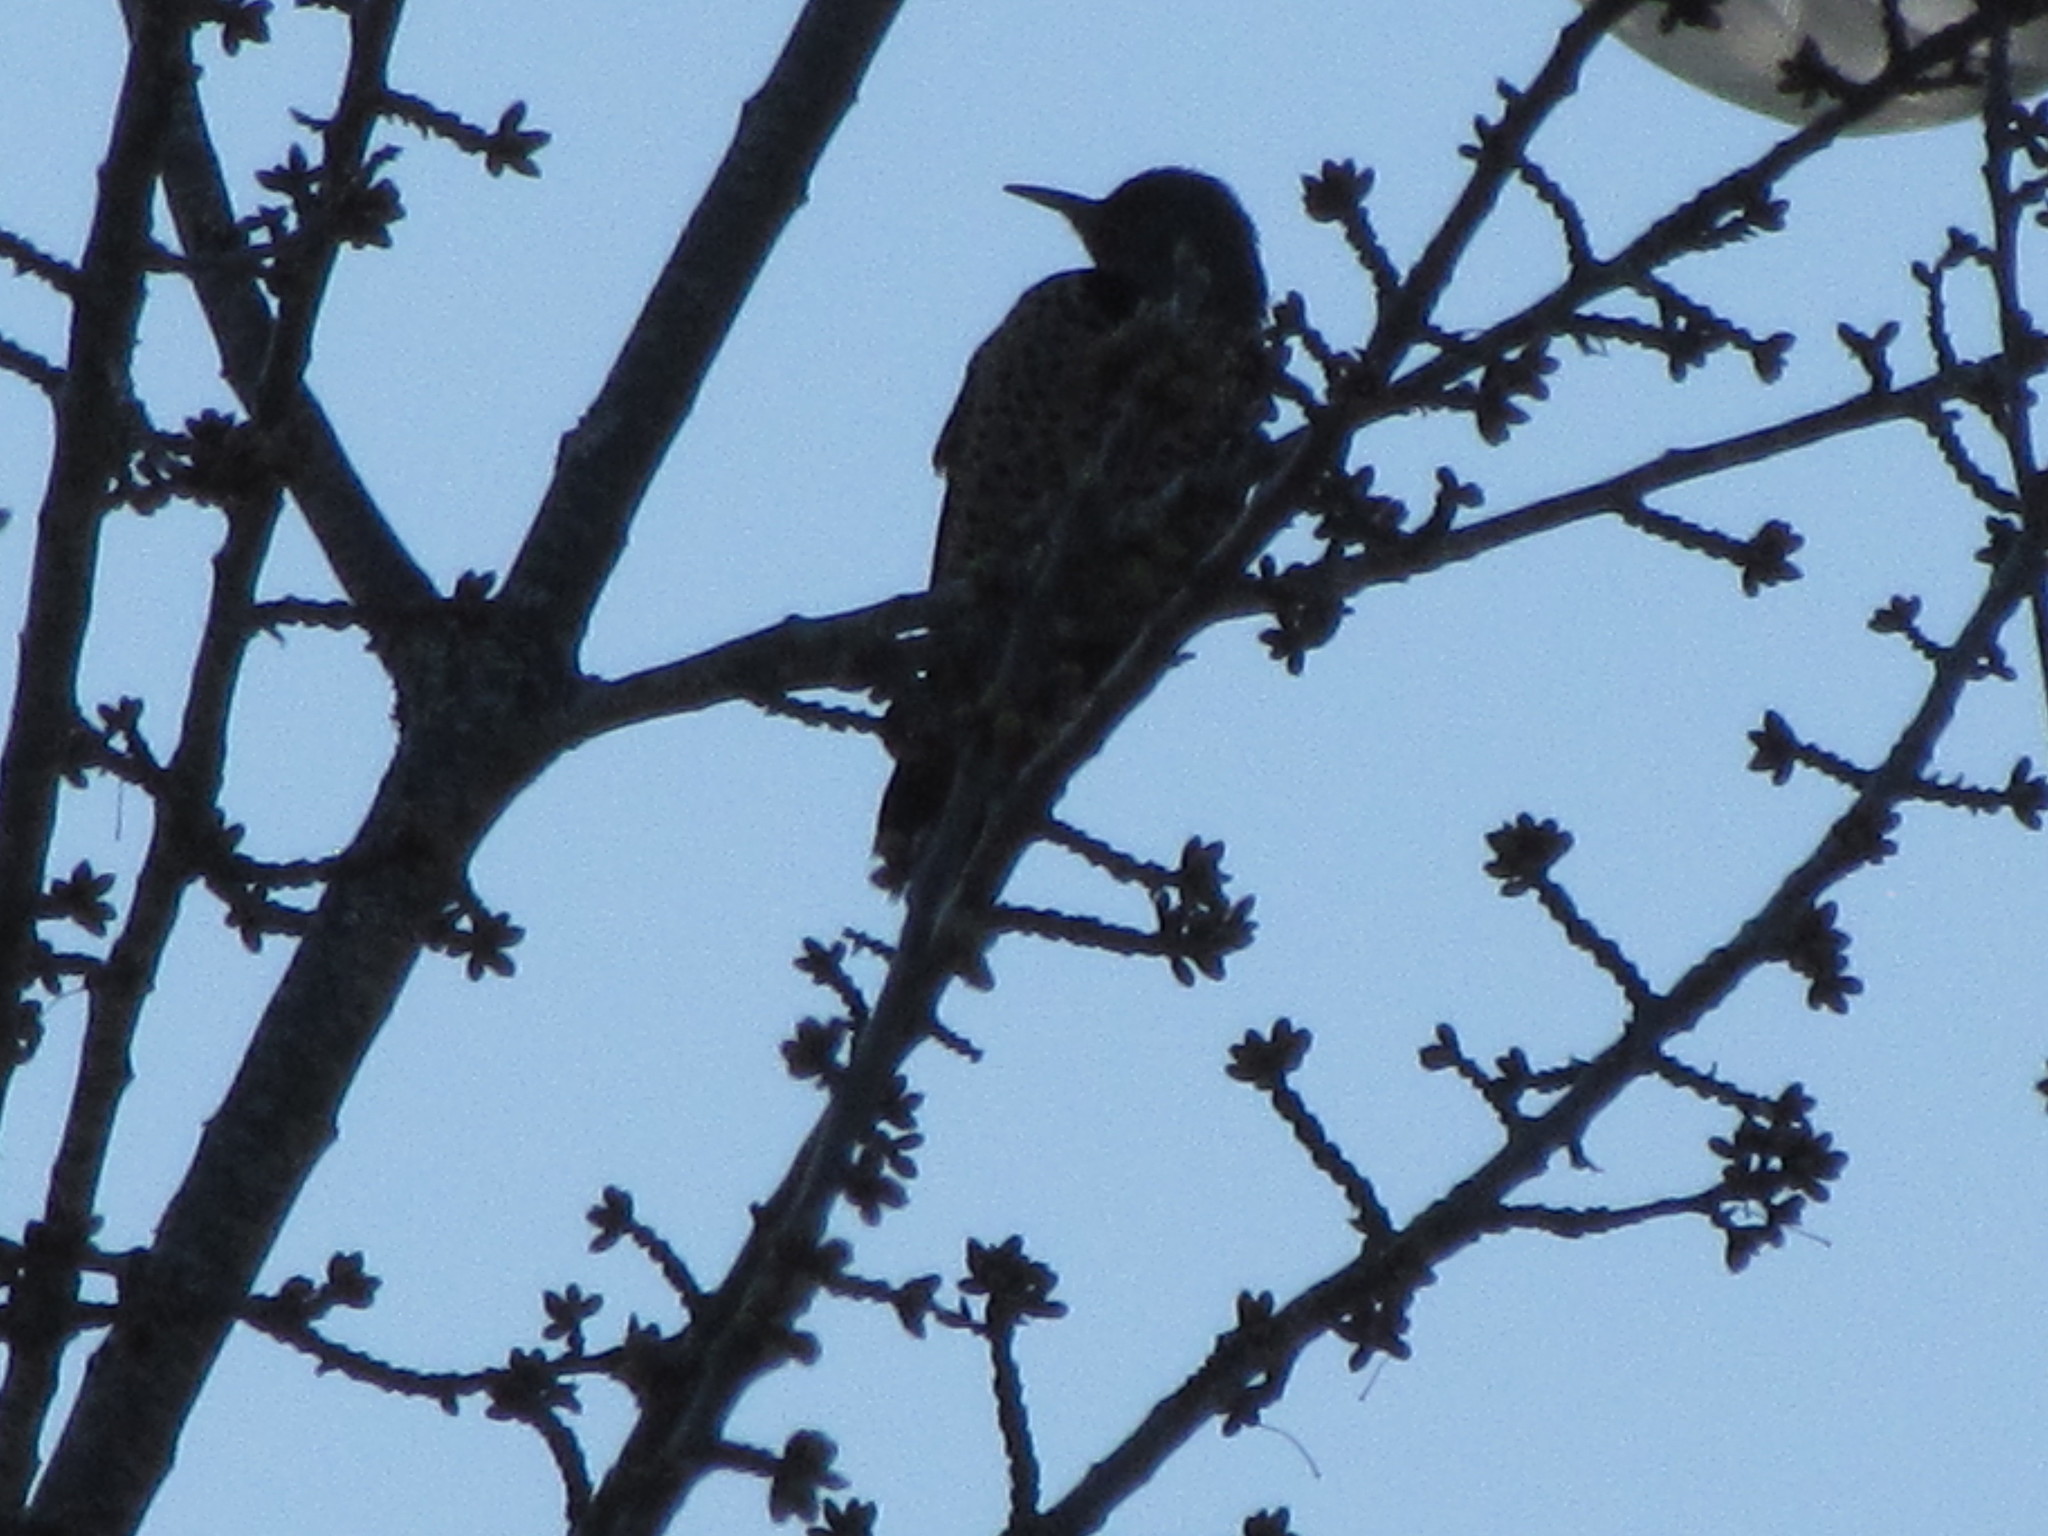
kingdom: Animalia
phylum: Chordata
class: Aves
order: Piciformes
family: Picidae
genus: Colaptes
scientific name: Colaptes auratus
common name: Northern flicker
